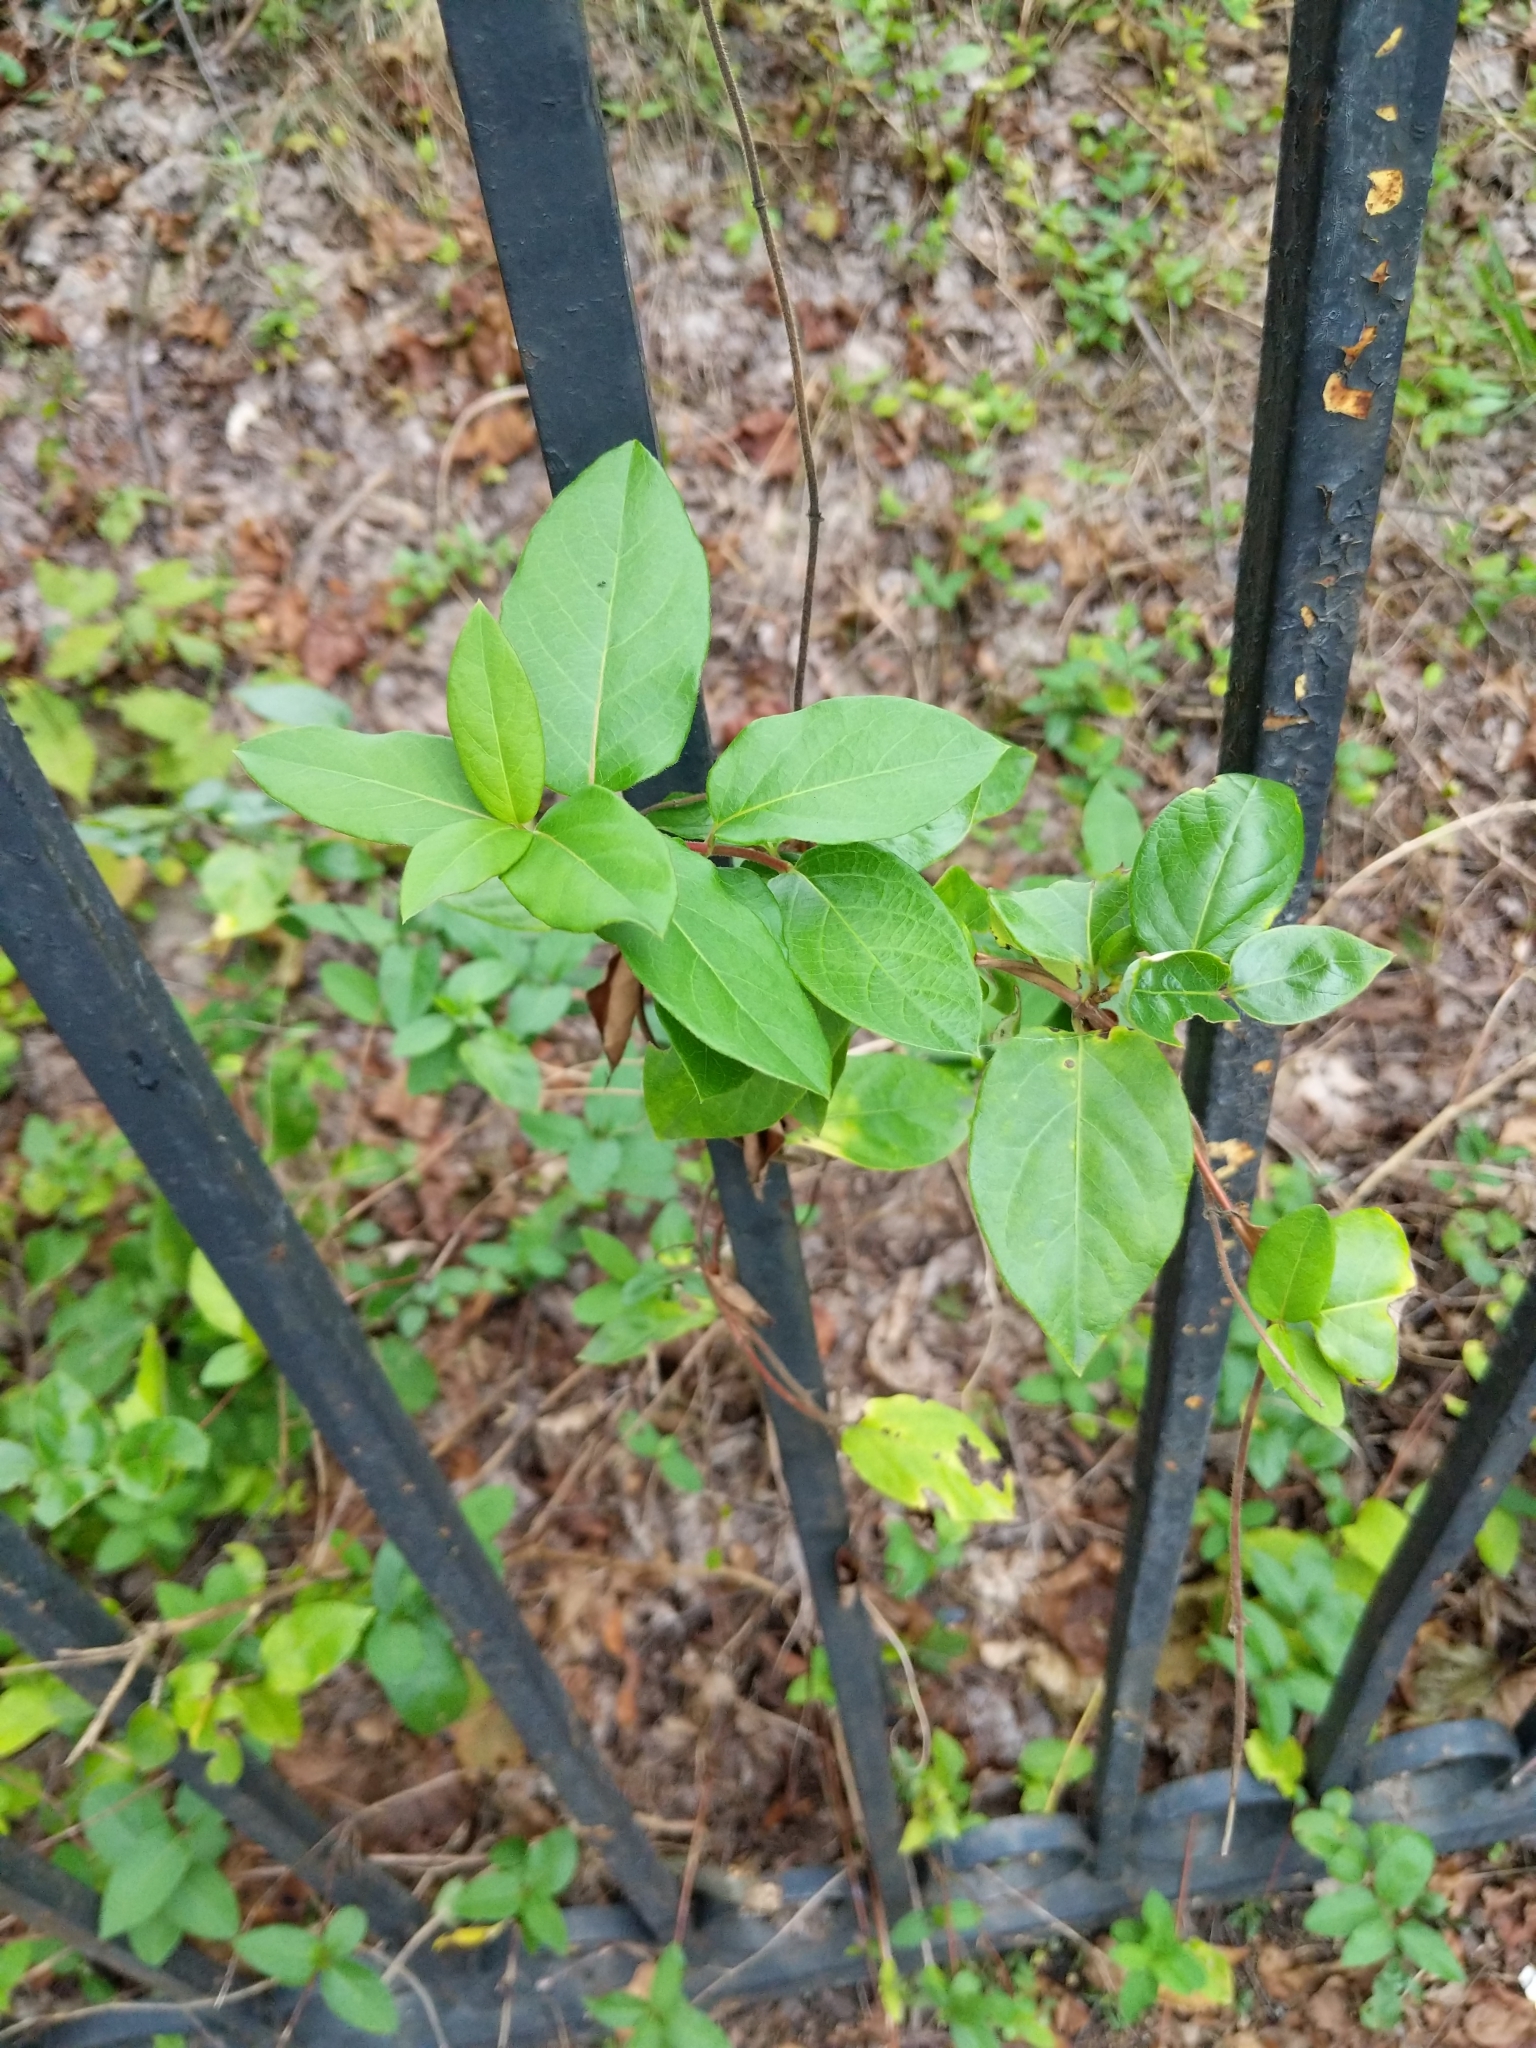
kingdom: Plantae
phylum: Tracheophyta
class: Magnoliopsida
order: Dipsacales
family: Caprifoliaceae
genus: Lonicera
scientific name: Lonicera japonica
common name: Japanese honeysuckle
